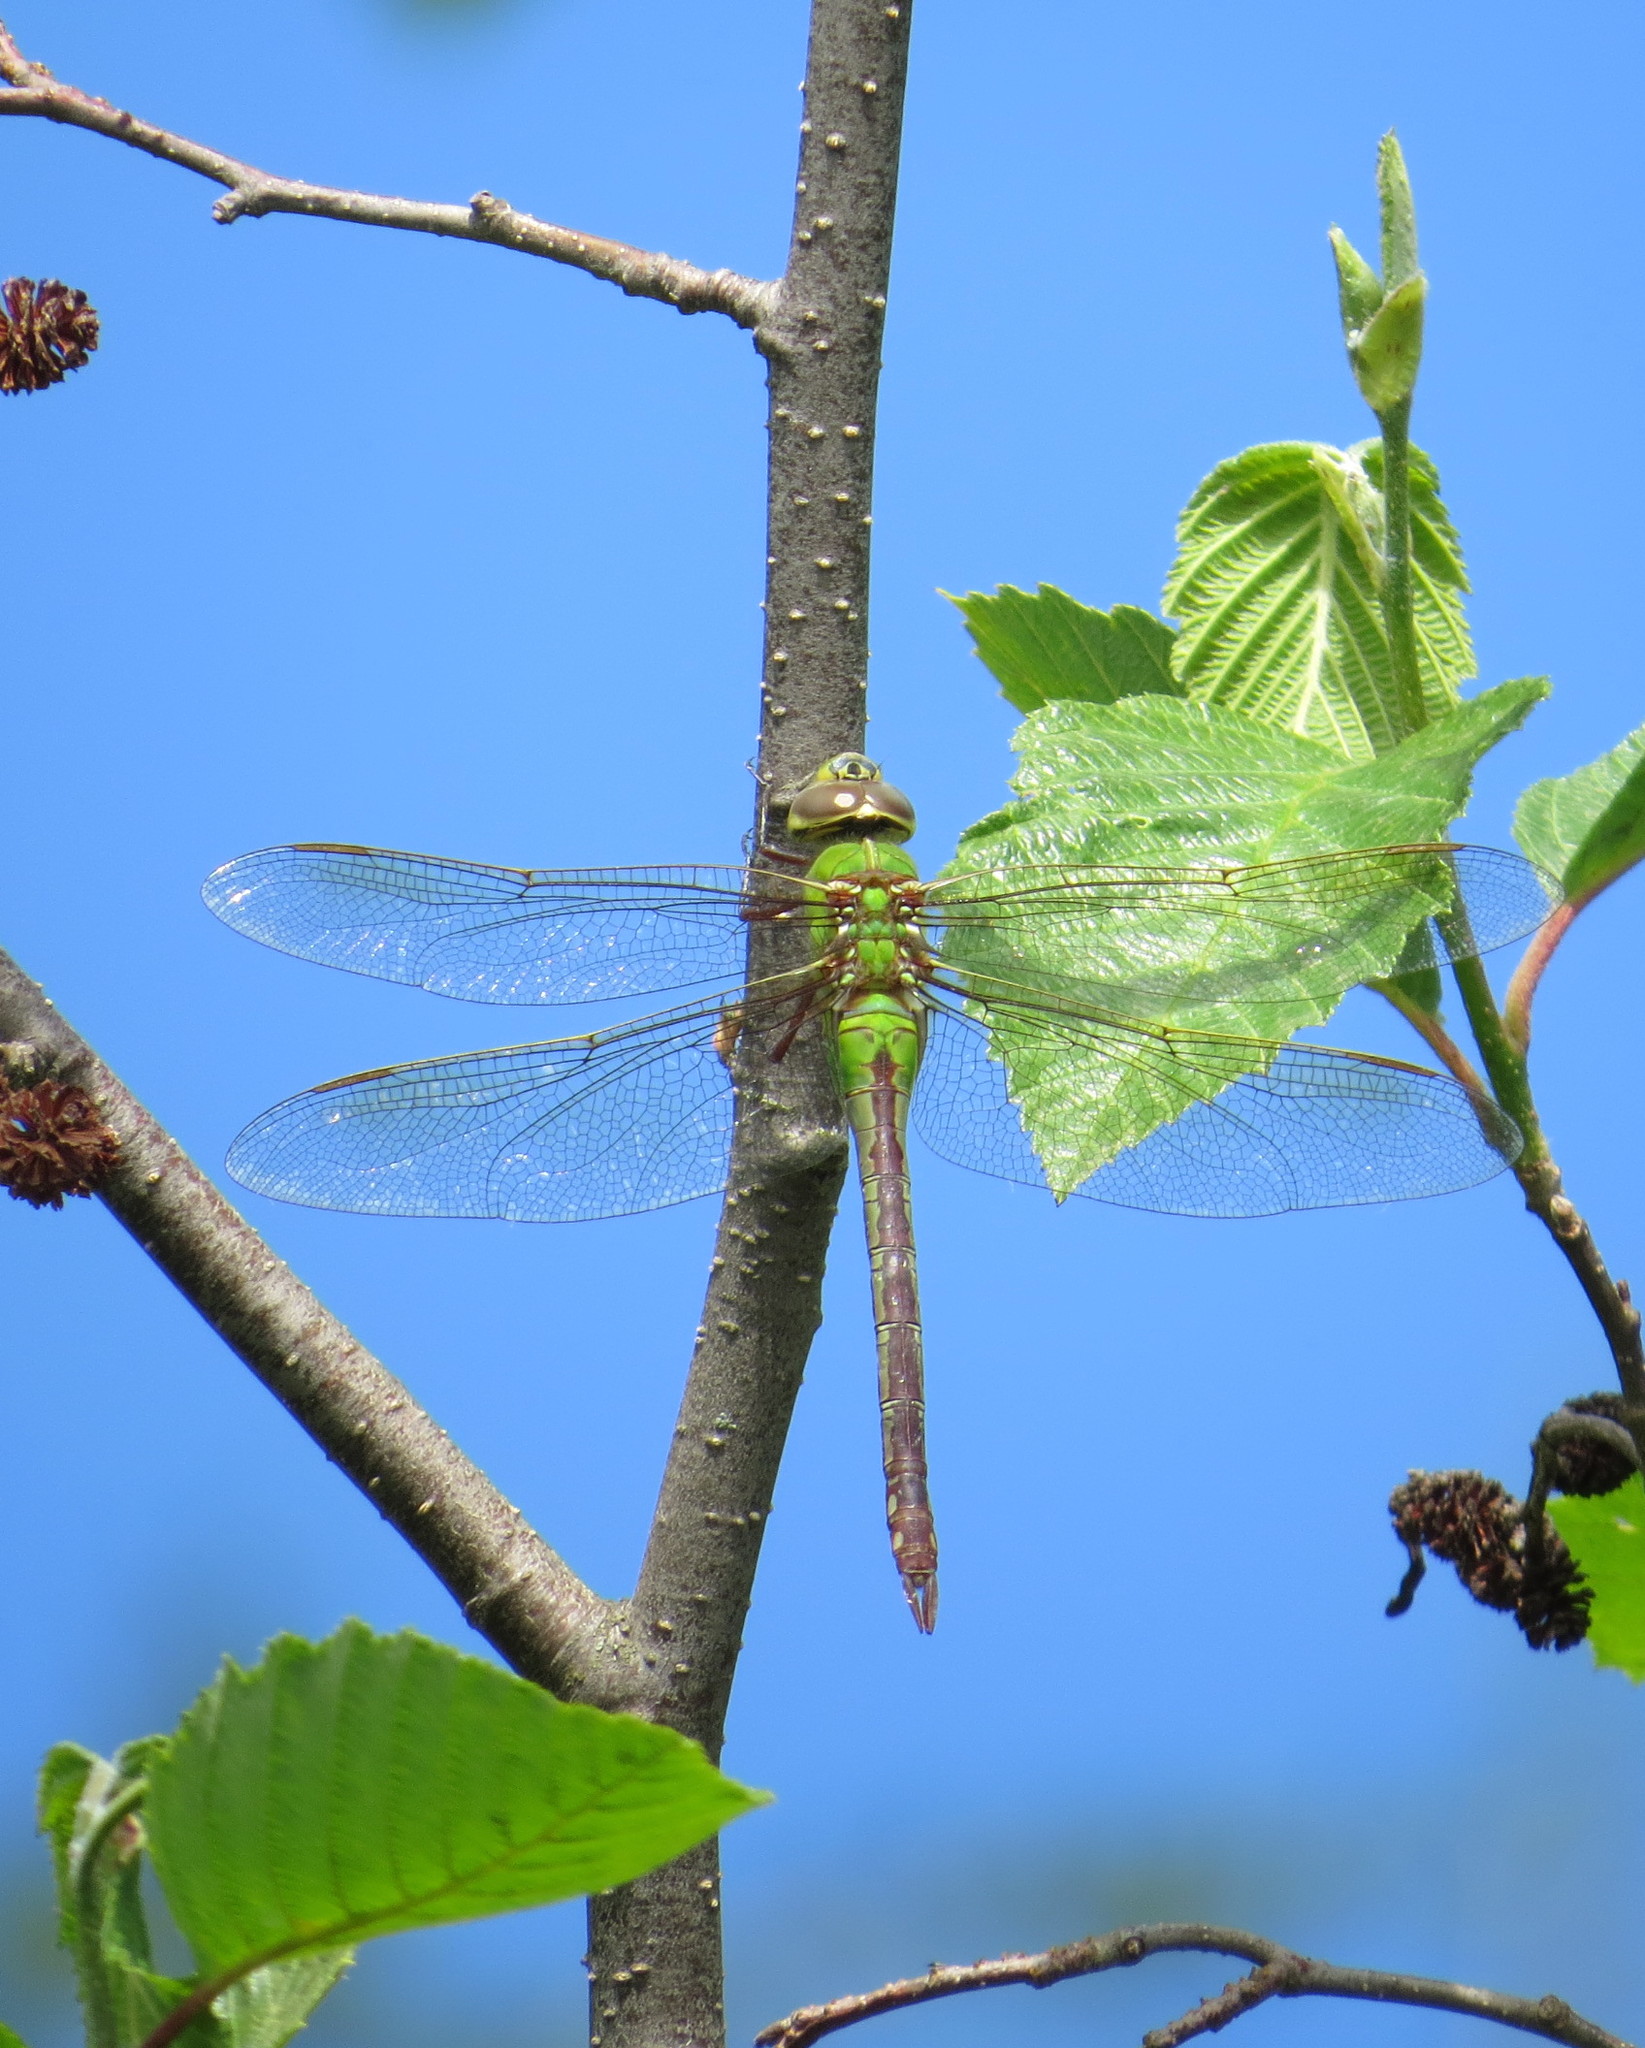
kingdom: Animalia
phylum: Arthropoda
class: Insecta
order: Odonata
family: Aeshnidae
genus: Anax
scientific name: Anax junius
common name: Common green darner
